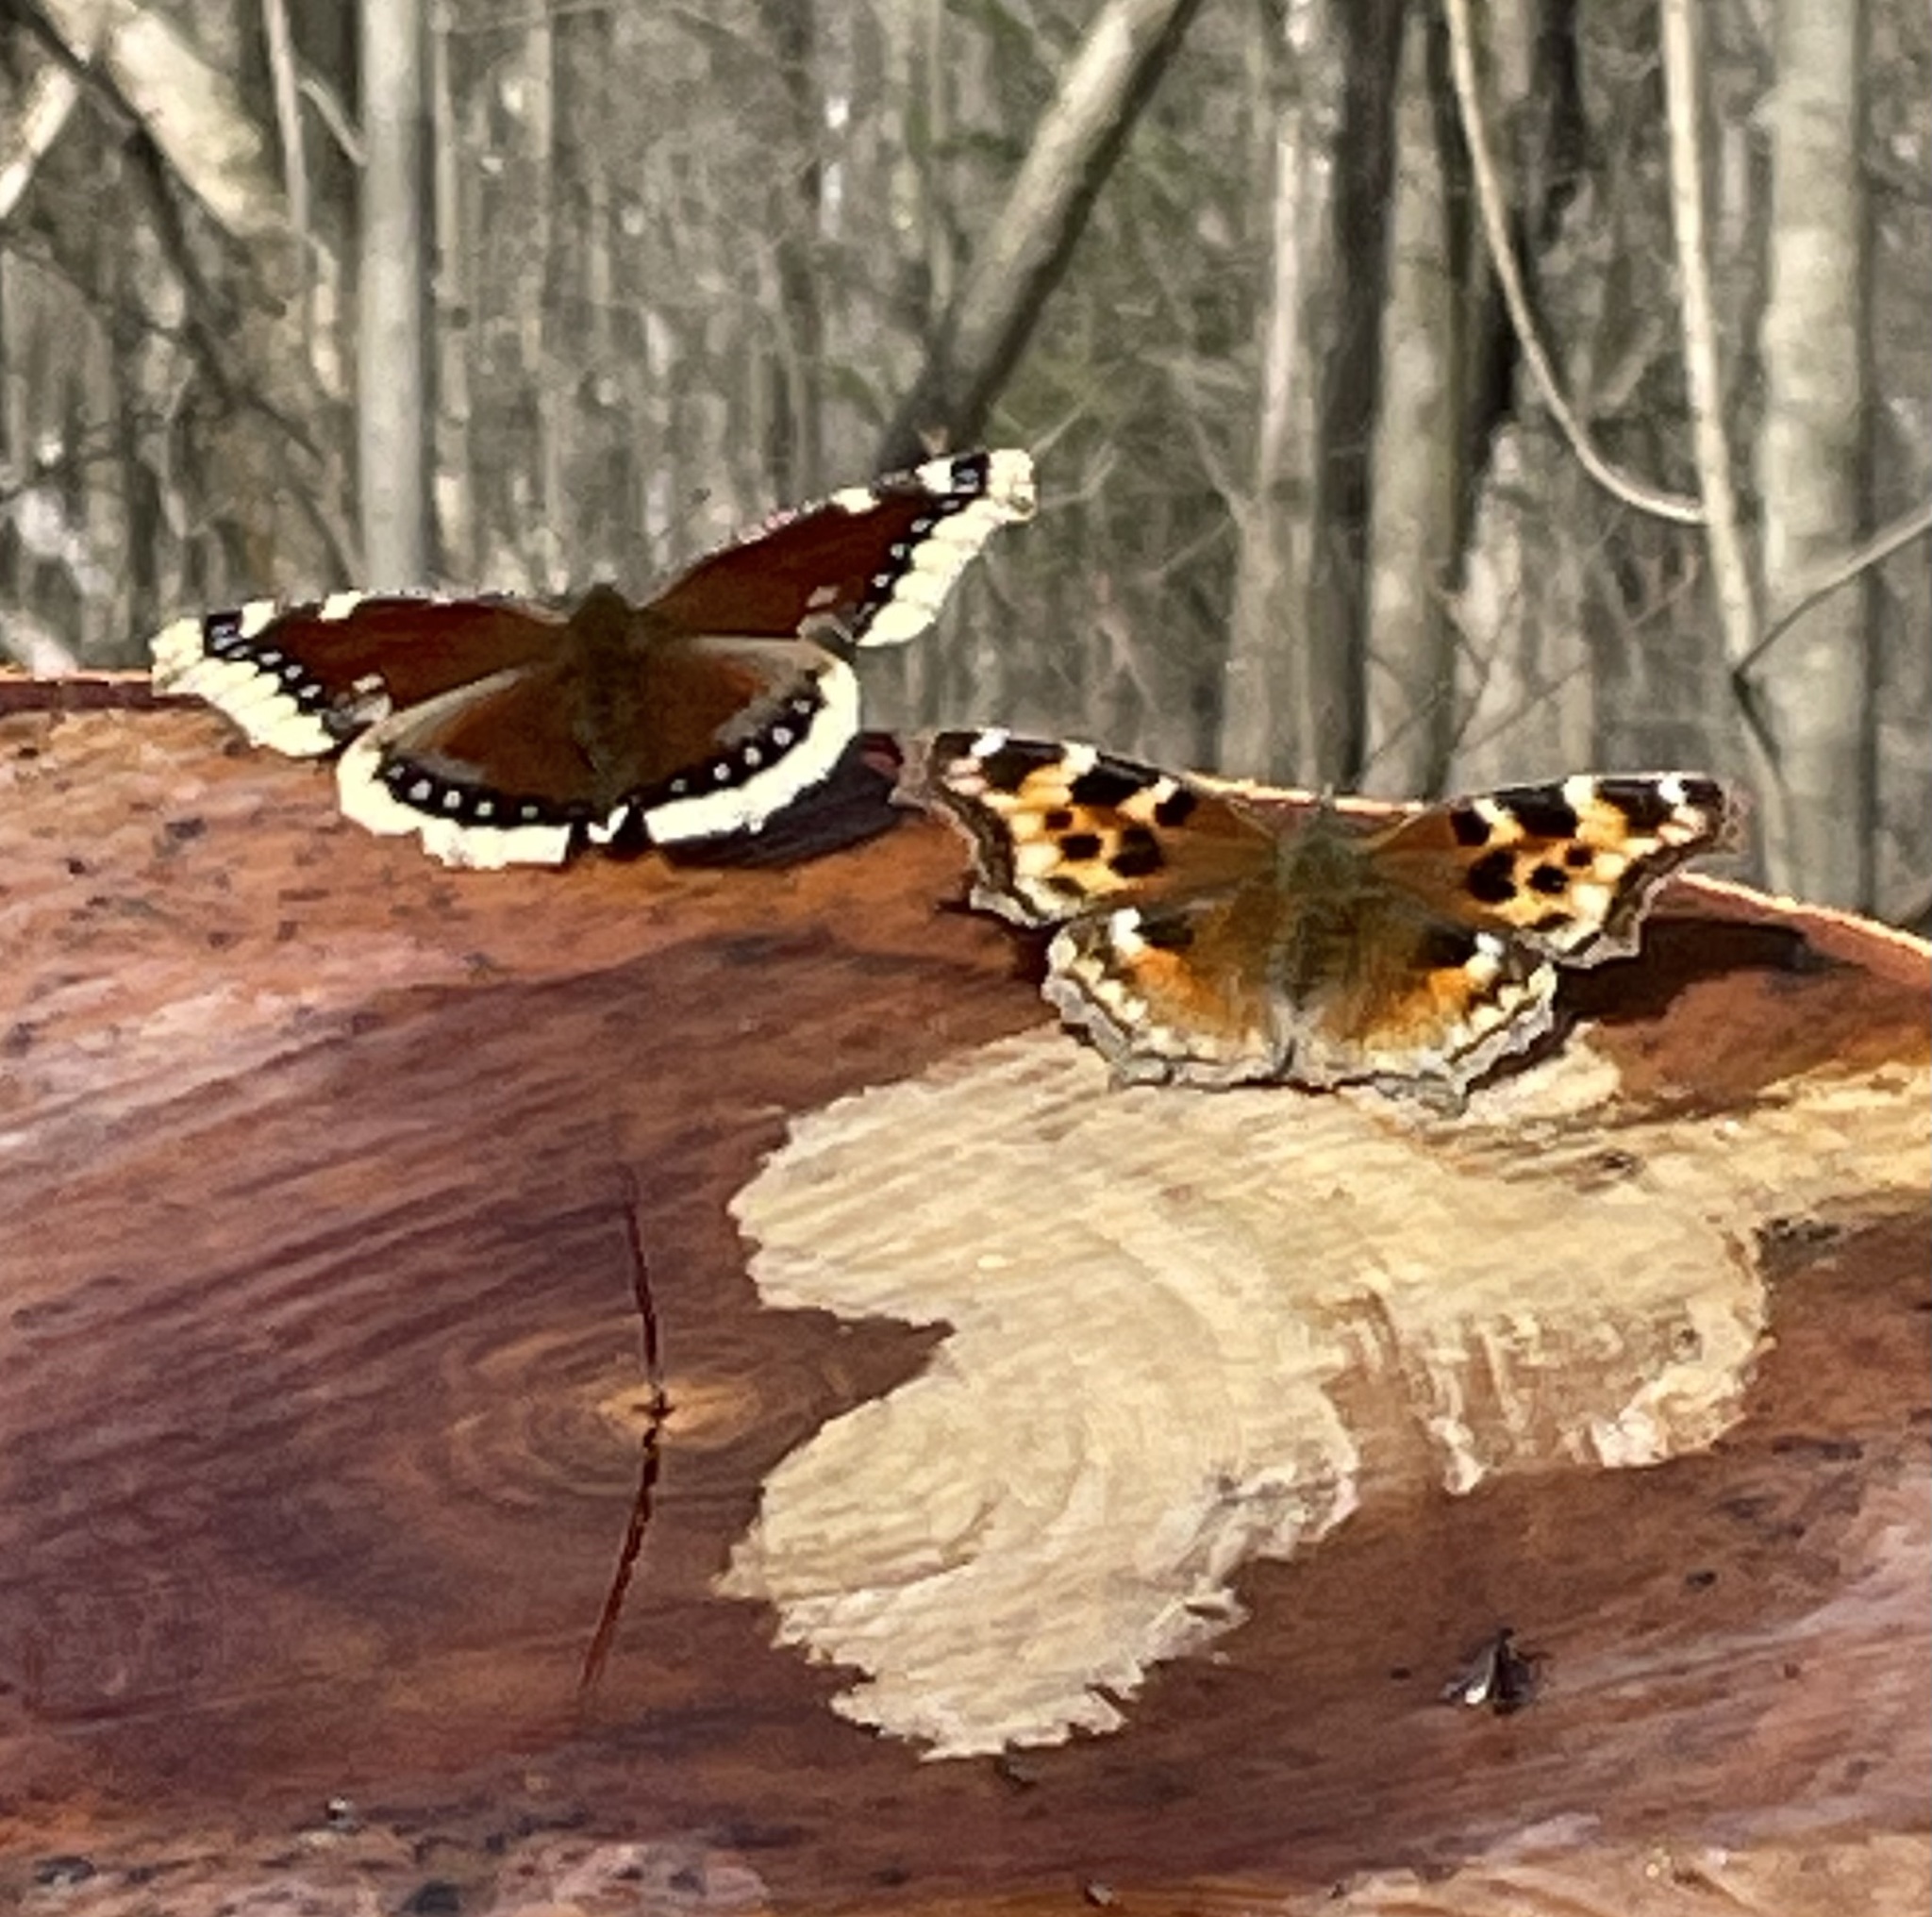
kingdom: Animalia
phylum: Arthropoda
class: Insecta
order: Lepidoptera
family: Nymphalidae
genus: Polygonia
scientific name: Polygonia vaualbum
